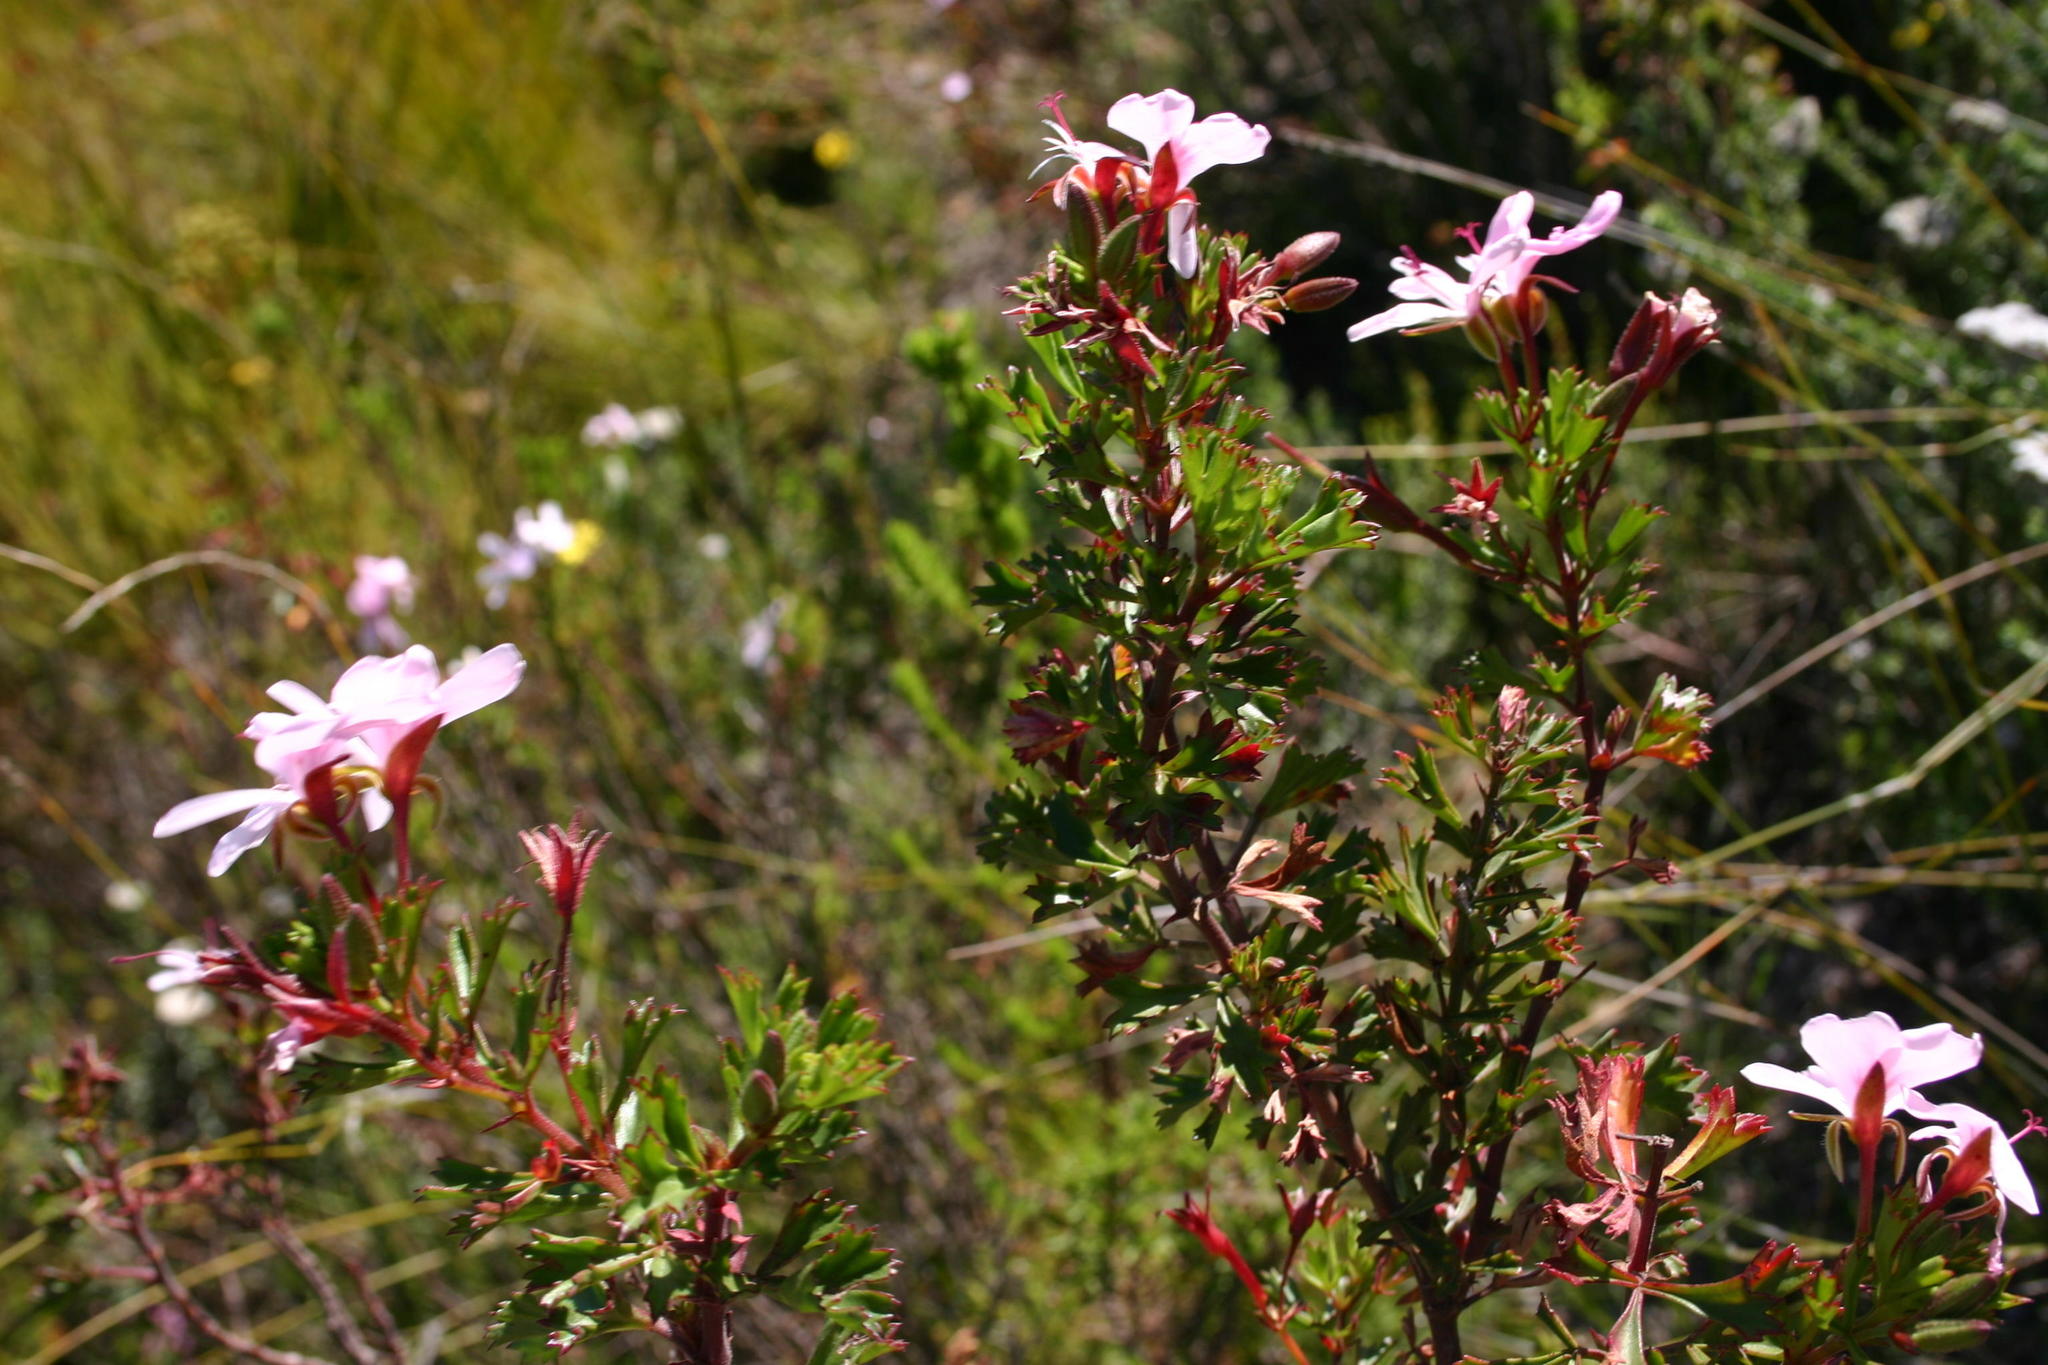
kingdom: Plantae
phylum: Tracheophyta
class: Magnoliopsida
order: Geraniales
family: Geraniaceae
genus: Pelargonium
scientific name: Pelargonium ternatum
